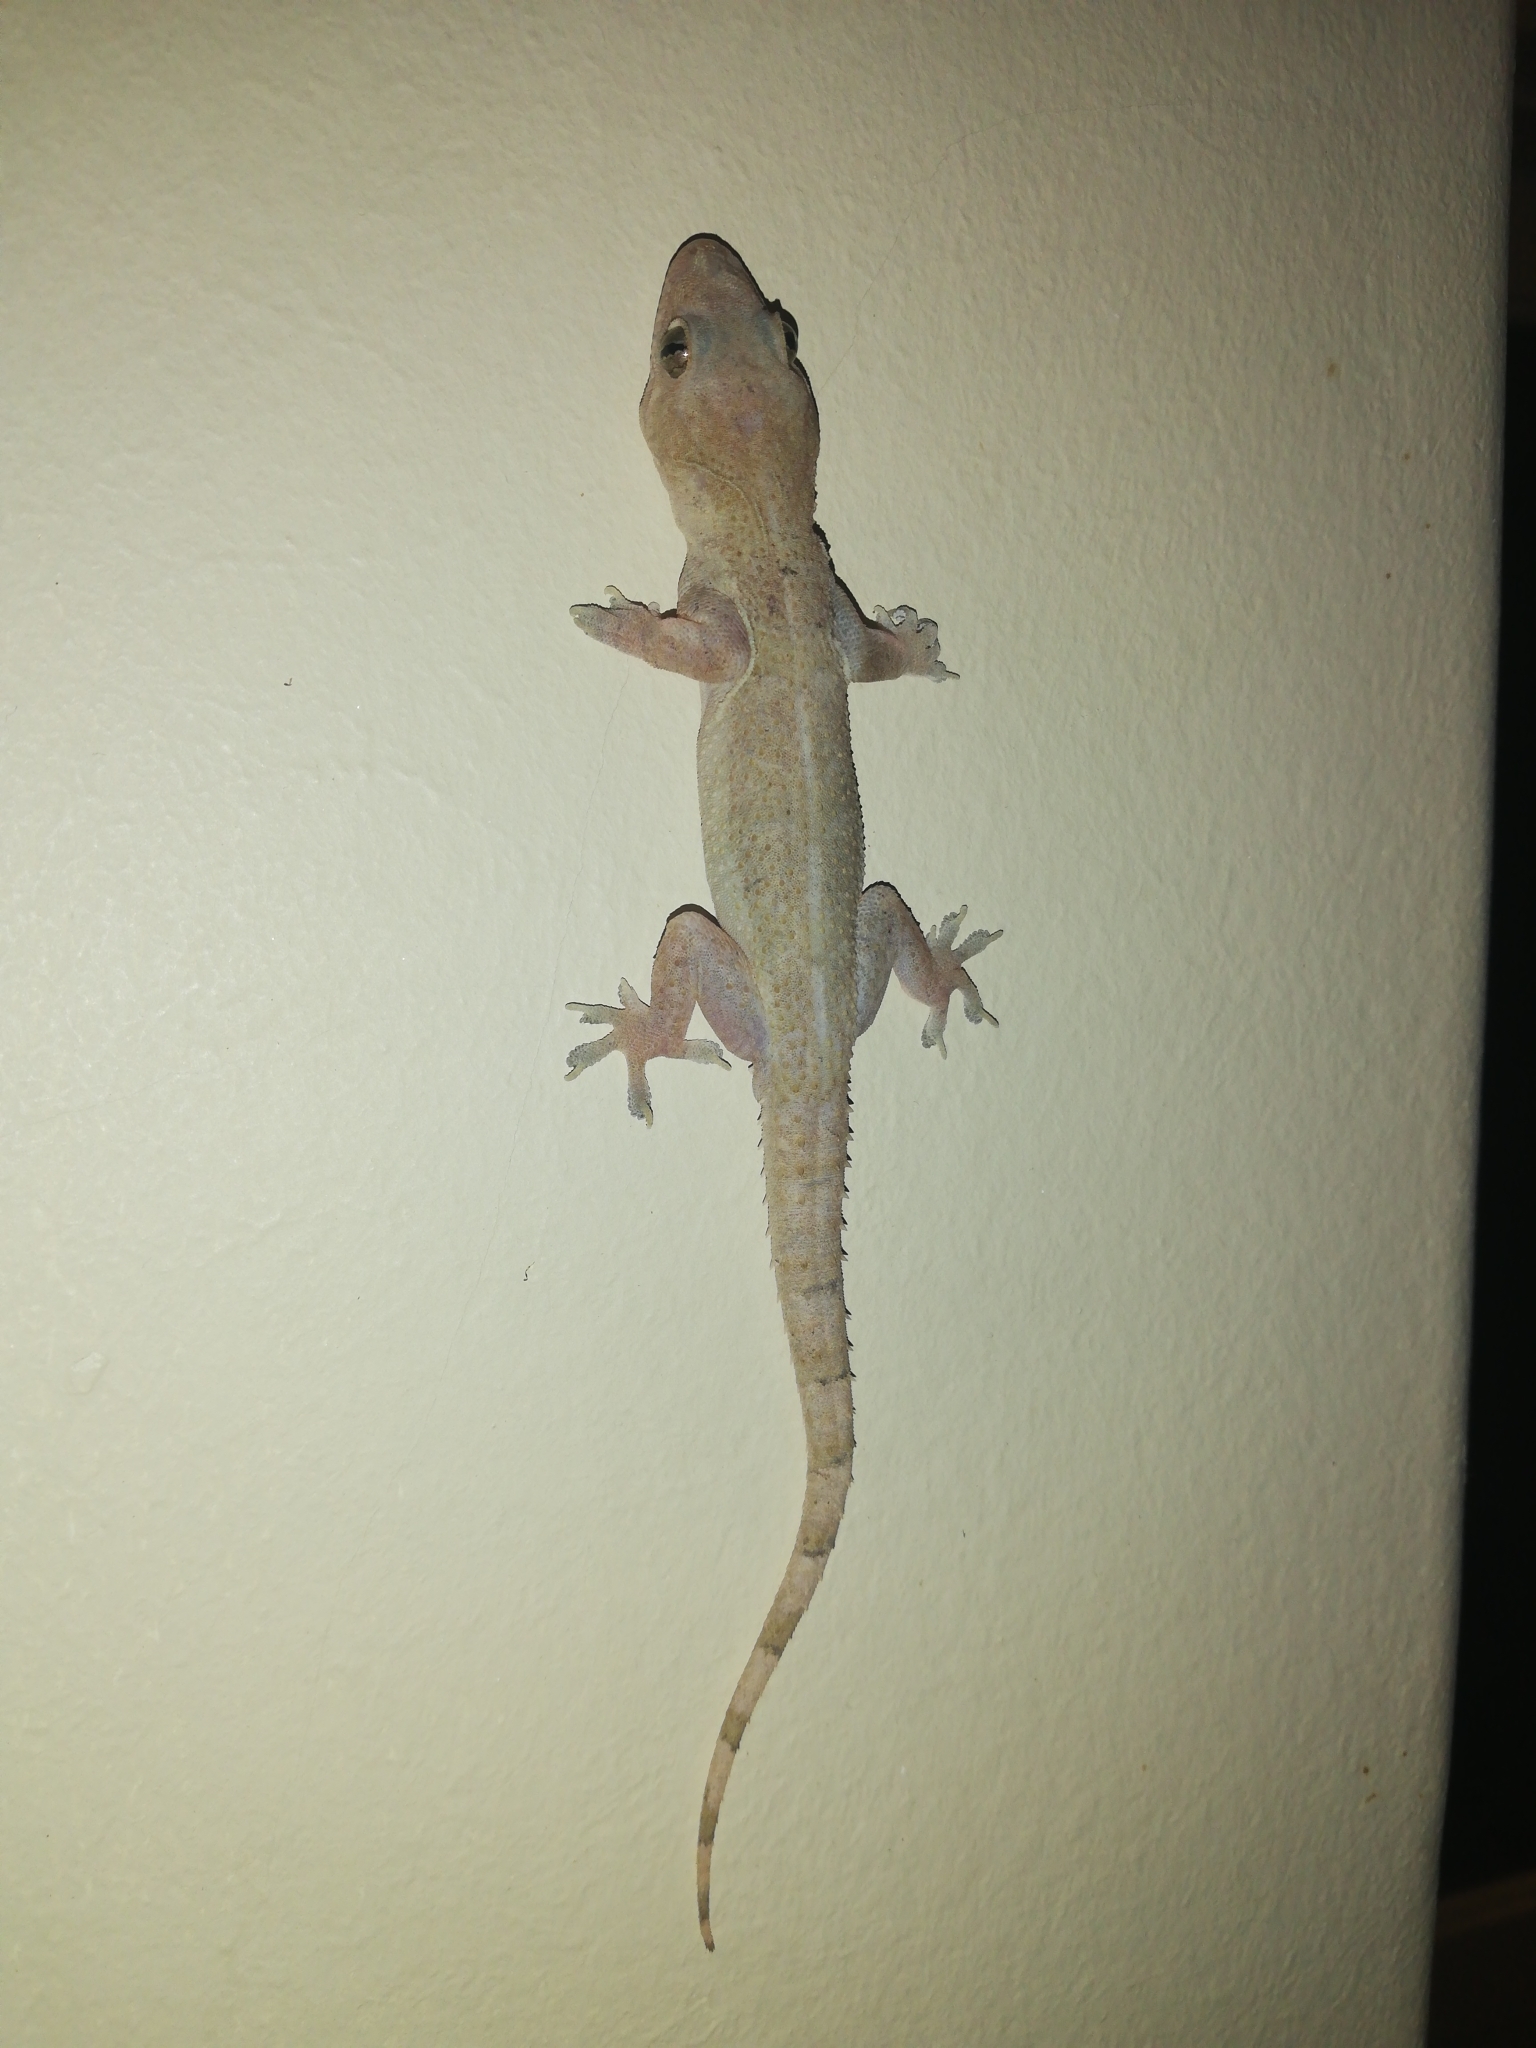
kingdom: Animalia
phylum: Chordata
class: Squamata
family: Gekkonidae
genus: Hemidactylus
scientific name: Hemidactylus mabouia
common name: House gecko
